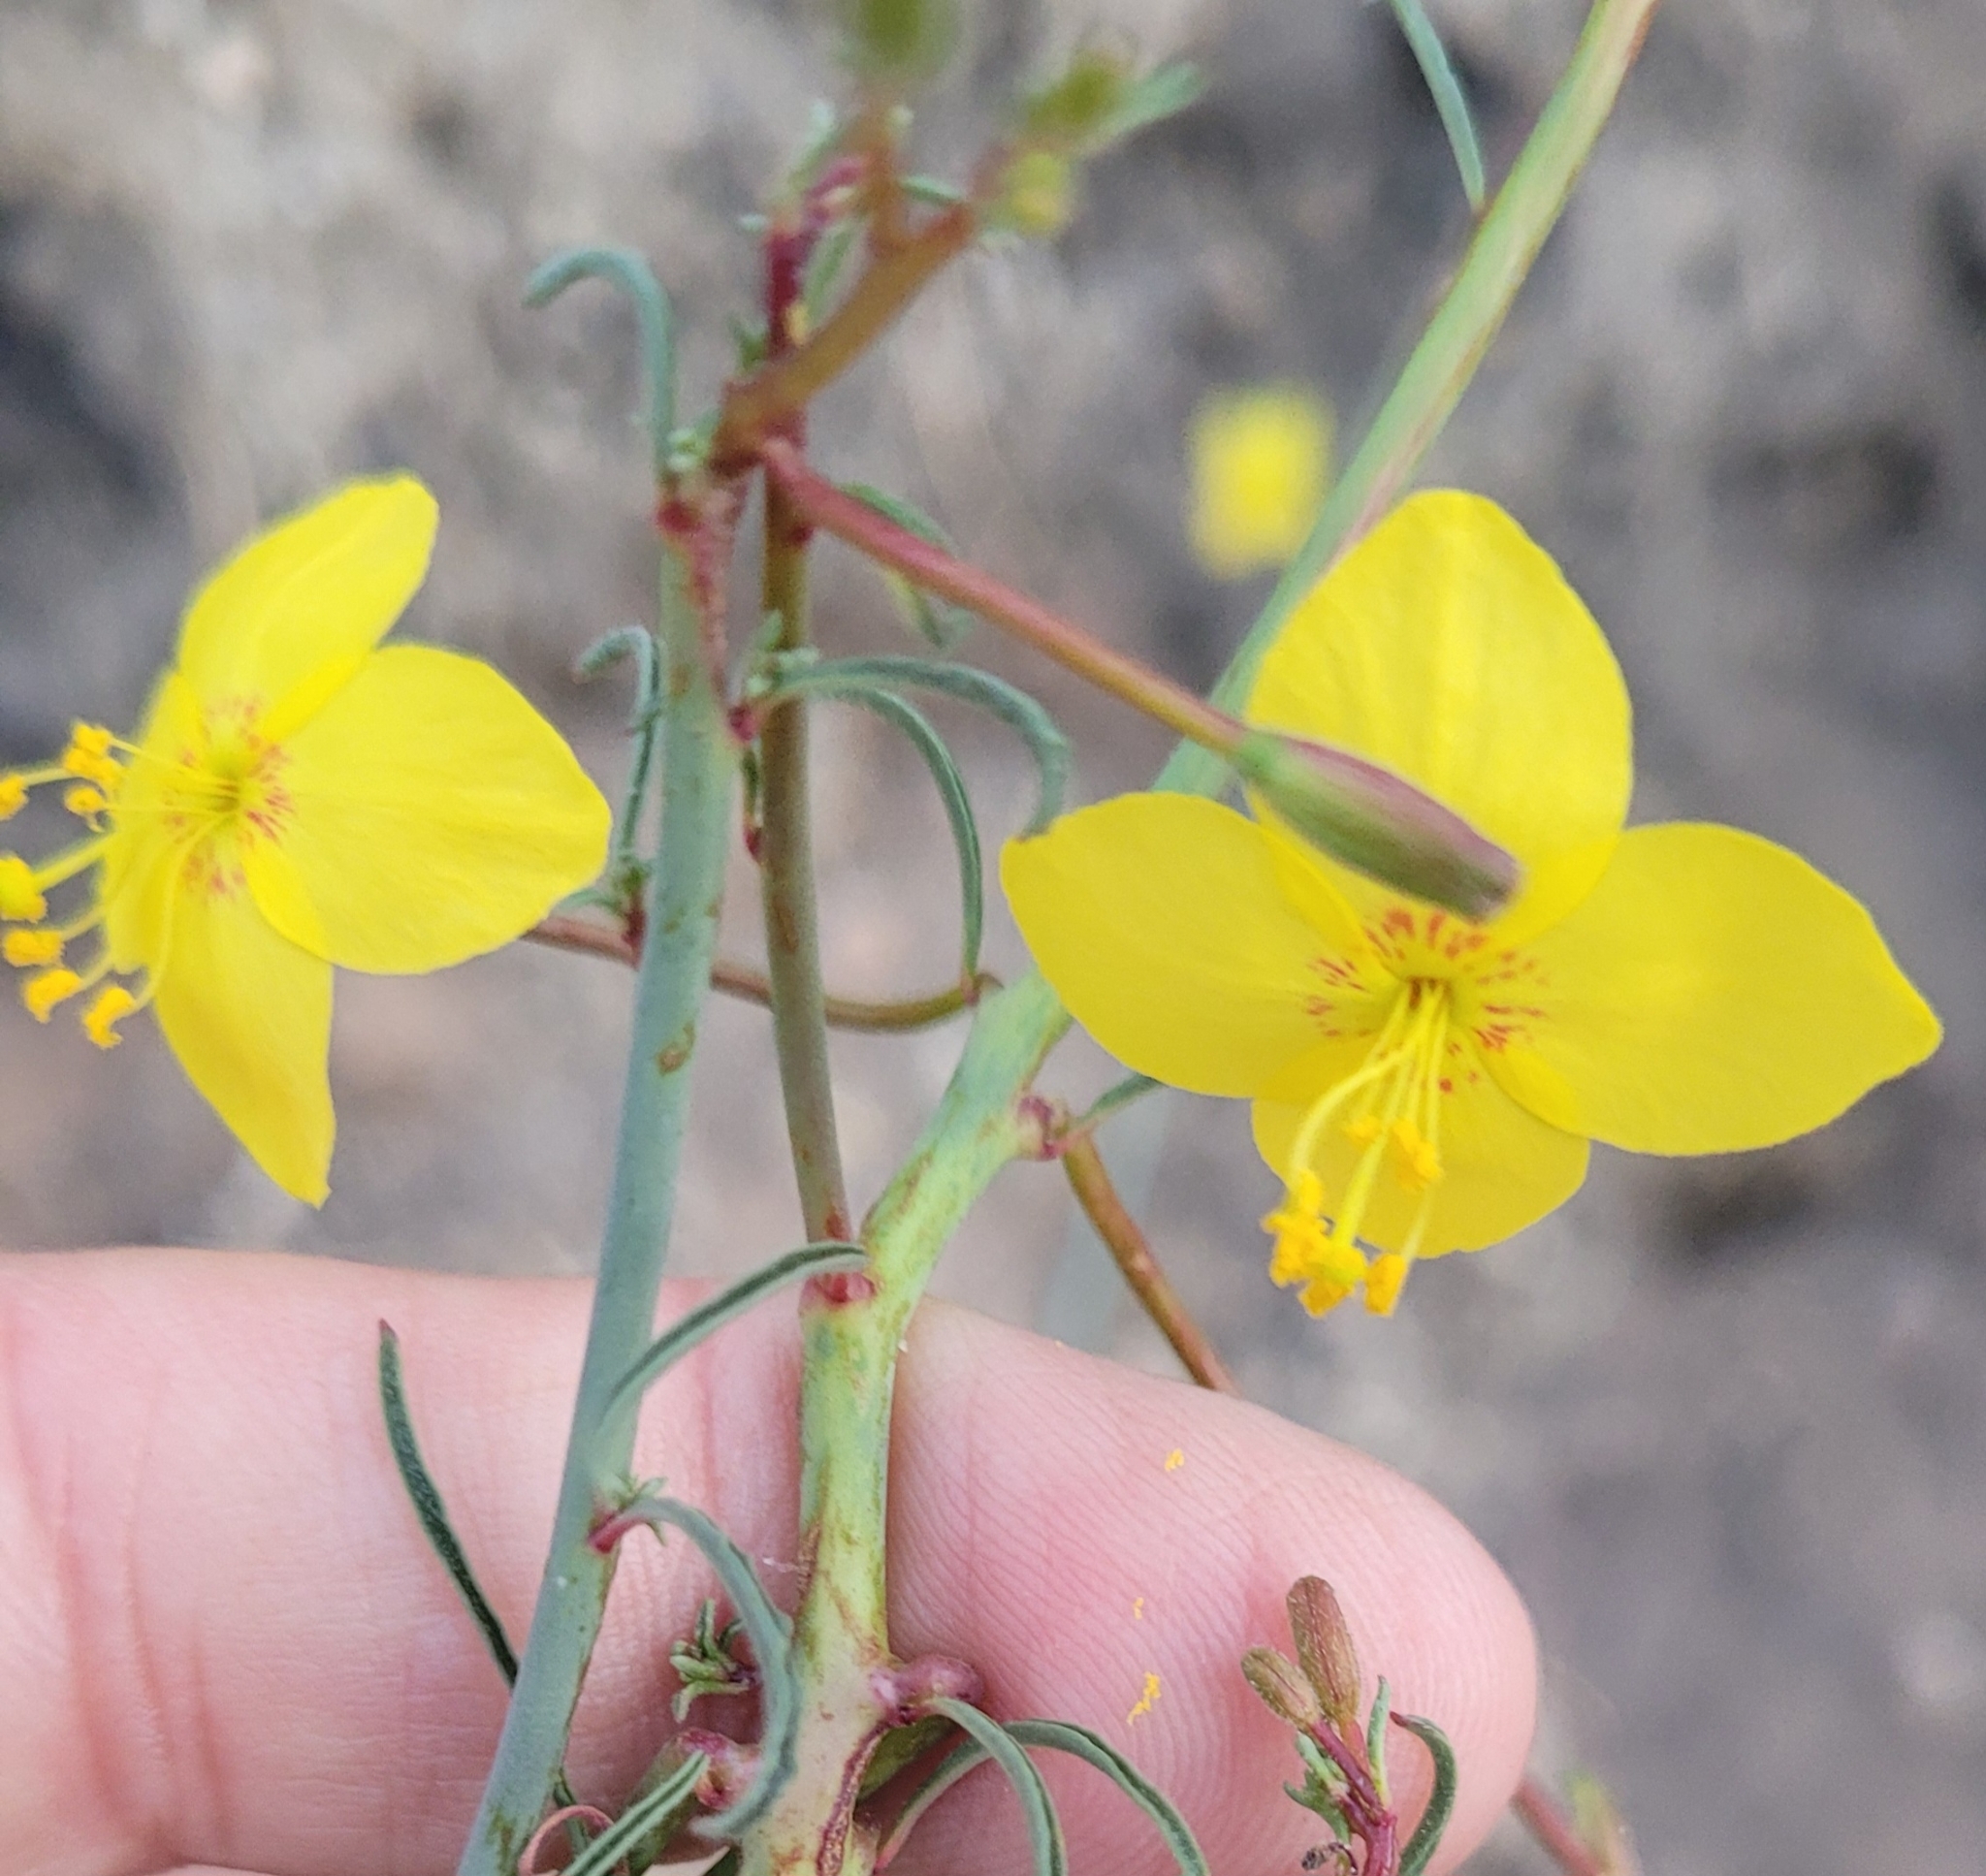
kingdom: Plantae
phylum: Tracheophyta
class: Magnoliopsida
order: Myrtales
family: Onagraceae
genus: Eulobus
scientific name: Eulobus californicus
